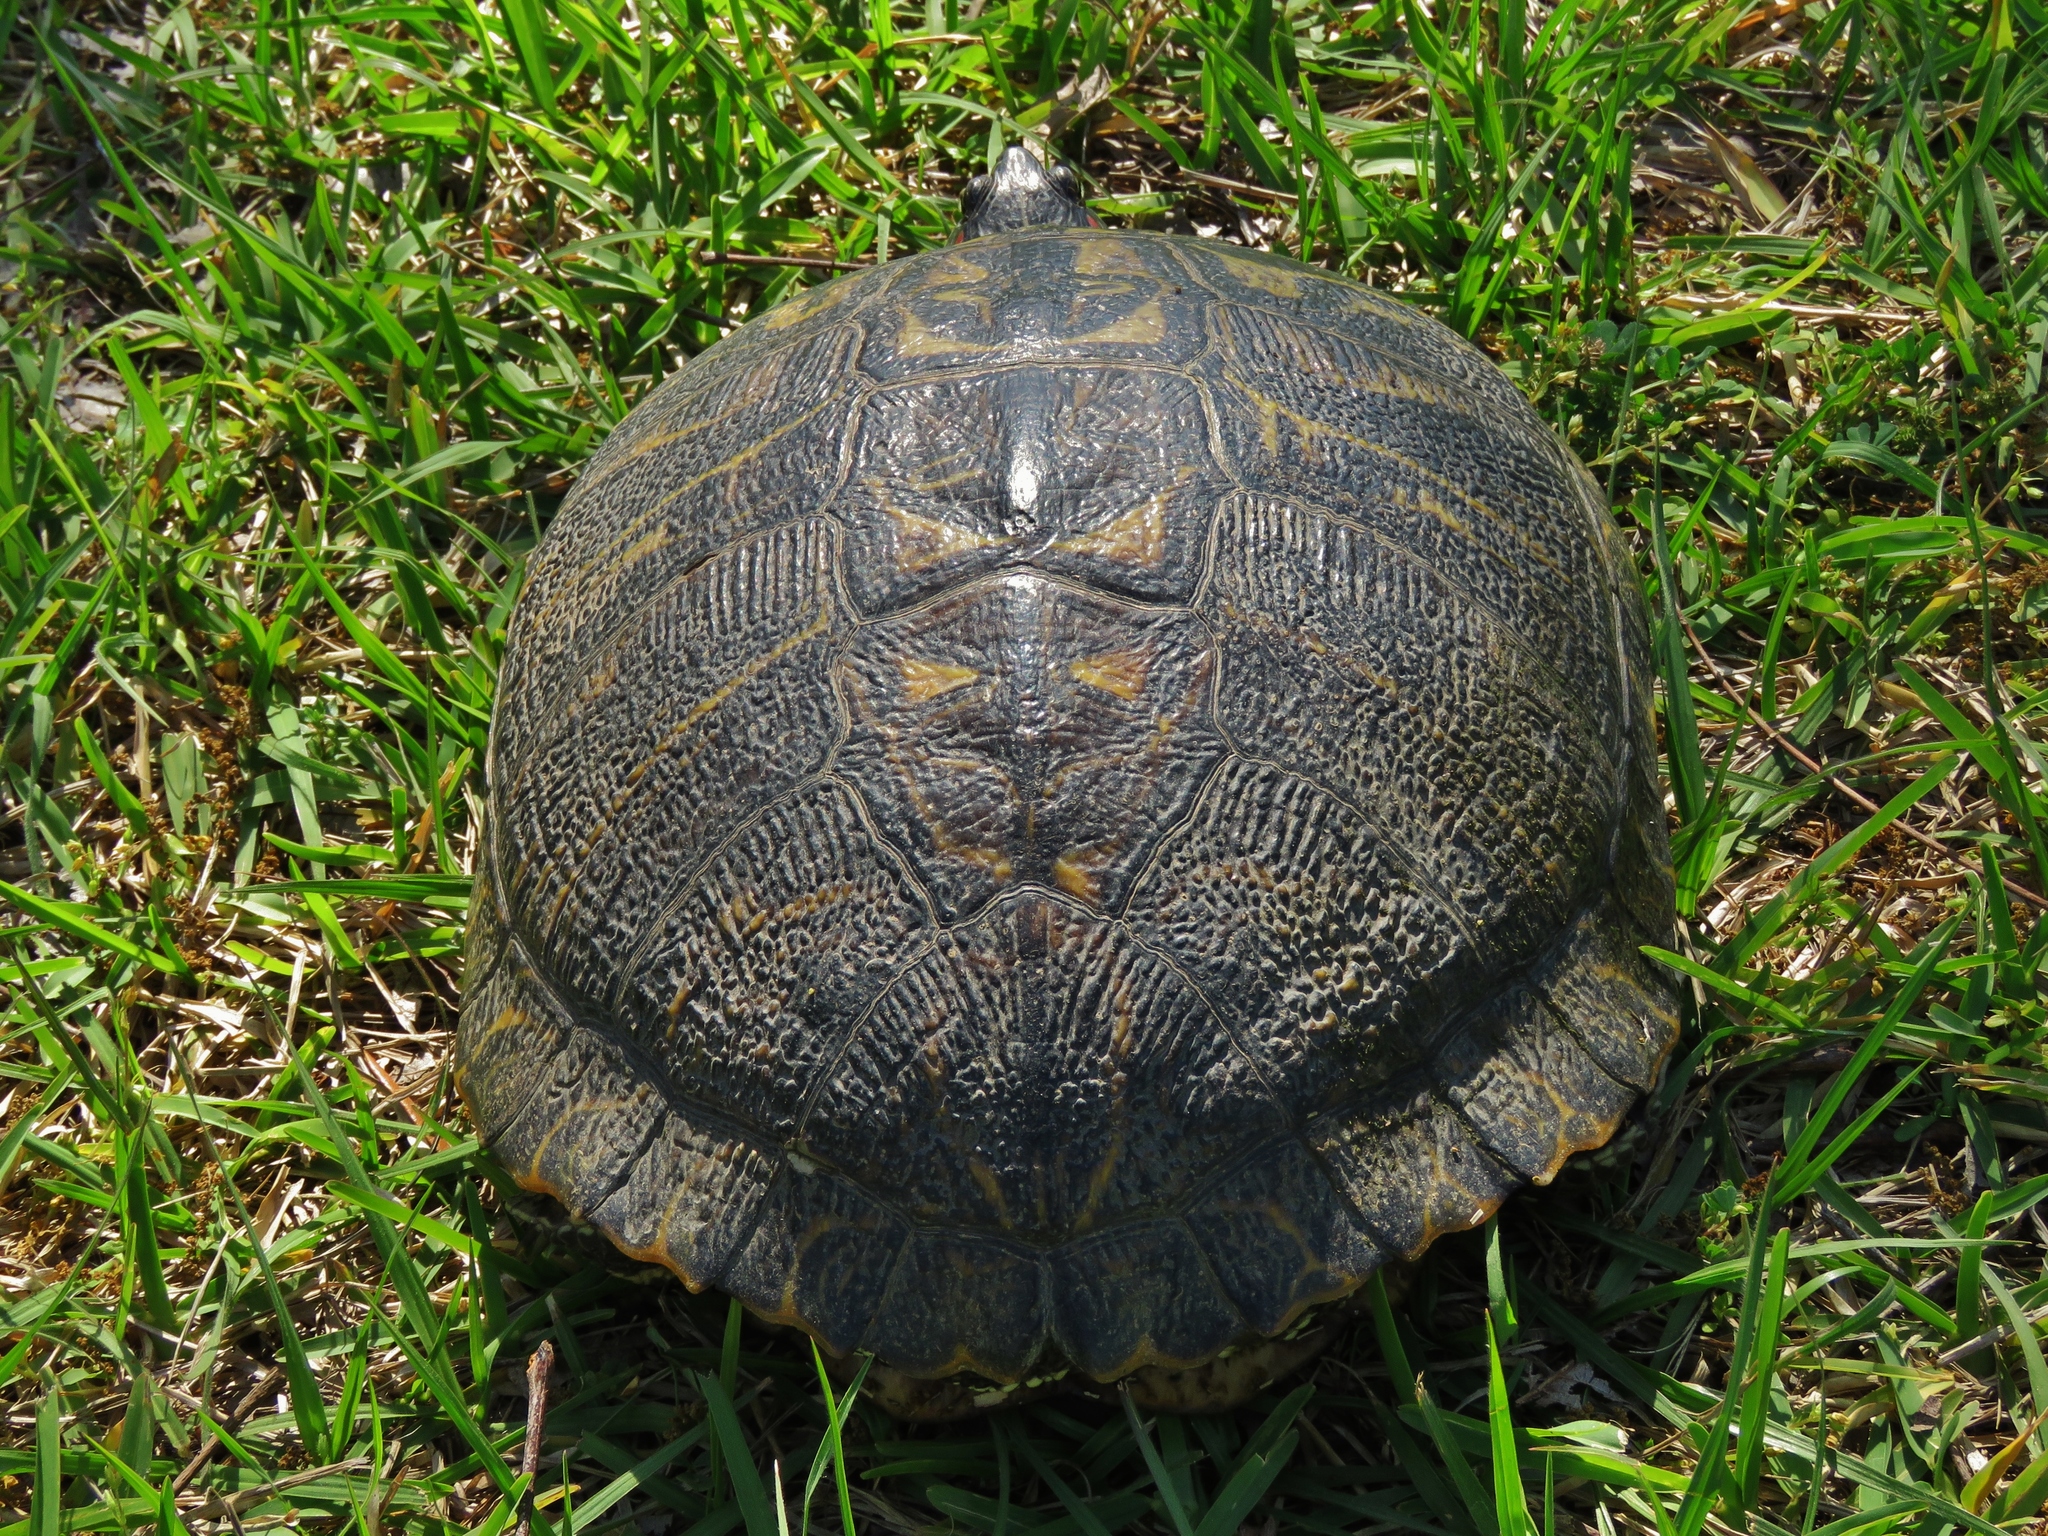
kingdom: Animalia
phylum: Chordata
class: Testudines
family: Emydidae
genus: Trachemys
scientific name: Trachemys scripta
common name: Slider
